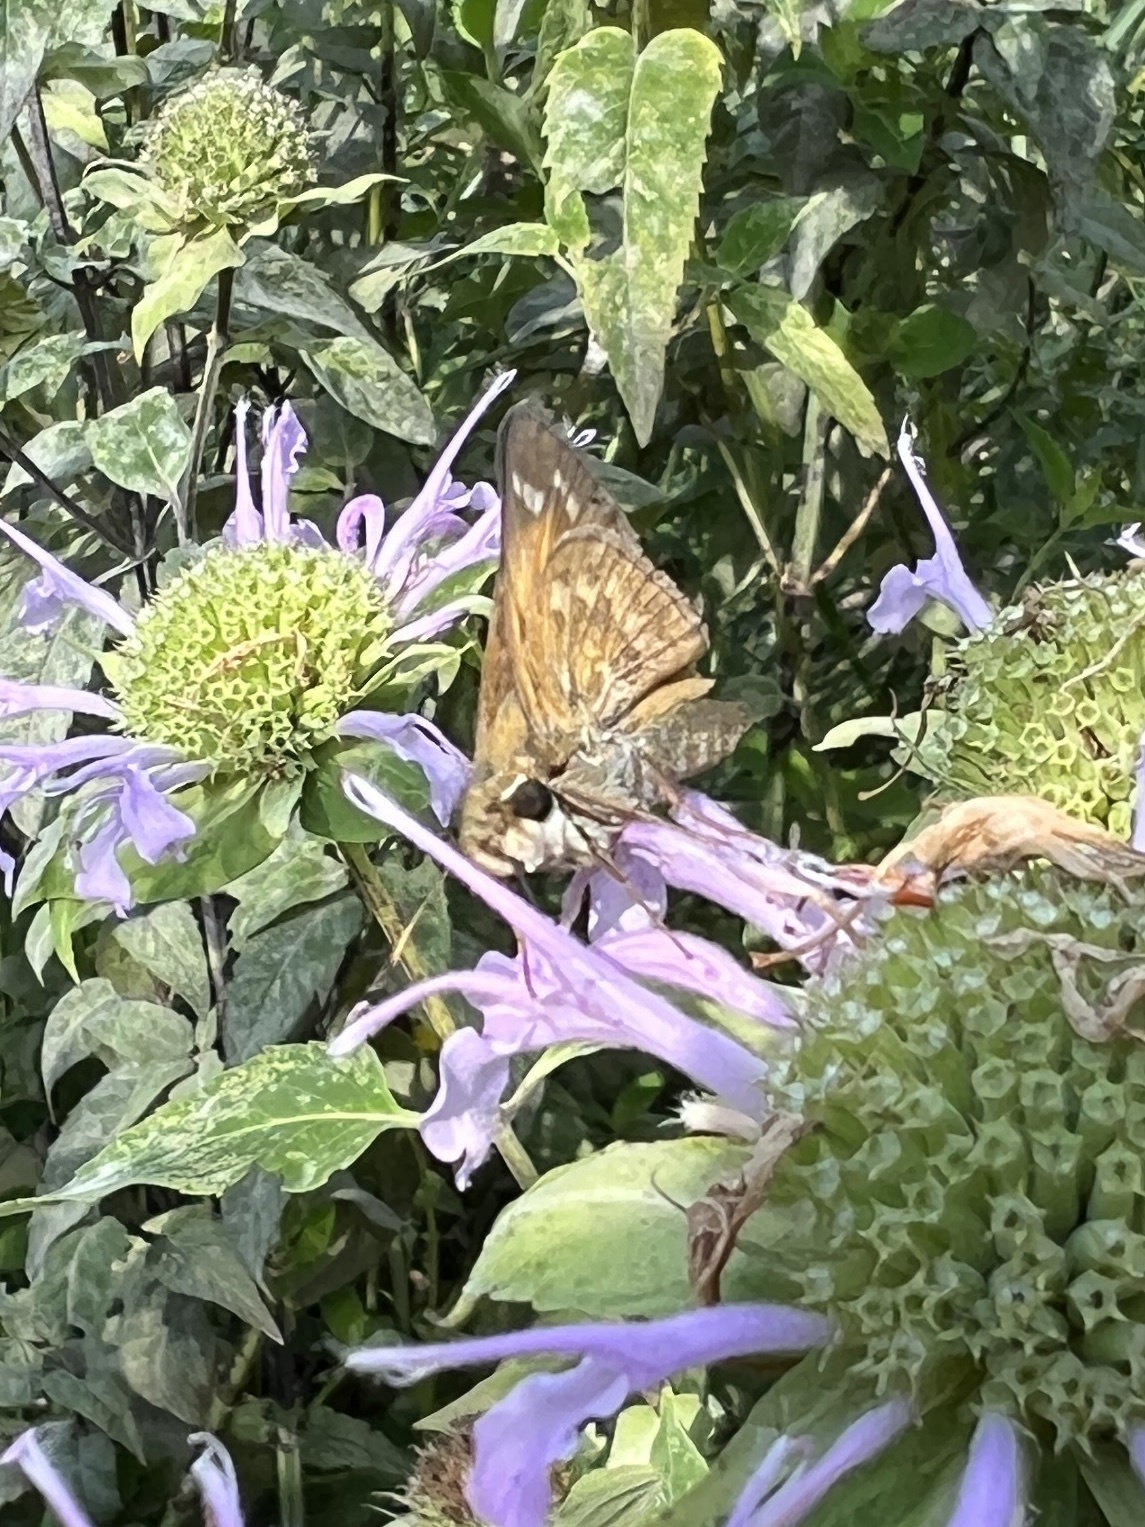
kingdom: Animalia
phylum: Arthropoda
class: Insecta
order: Lepidoptera
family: Hesperiidae
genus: Atalopedes
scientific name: Atalopedes
